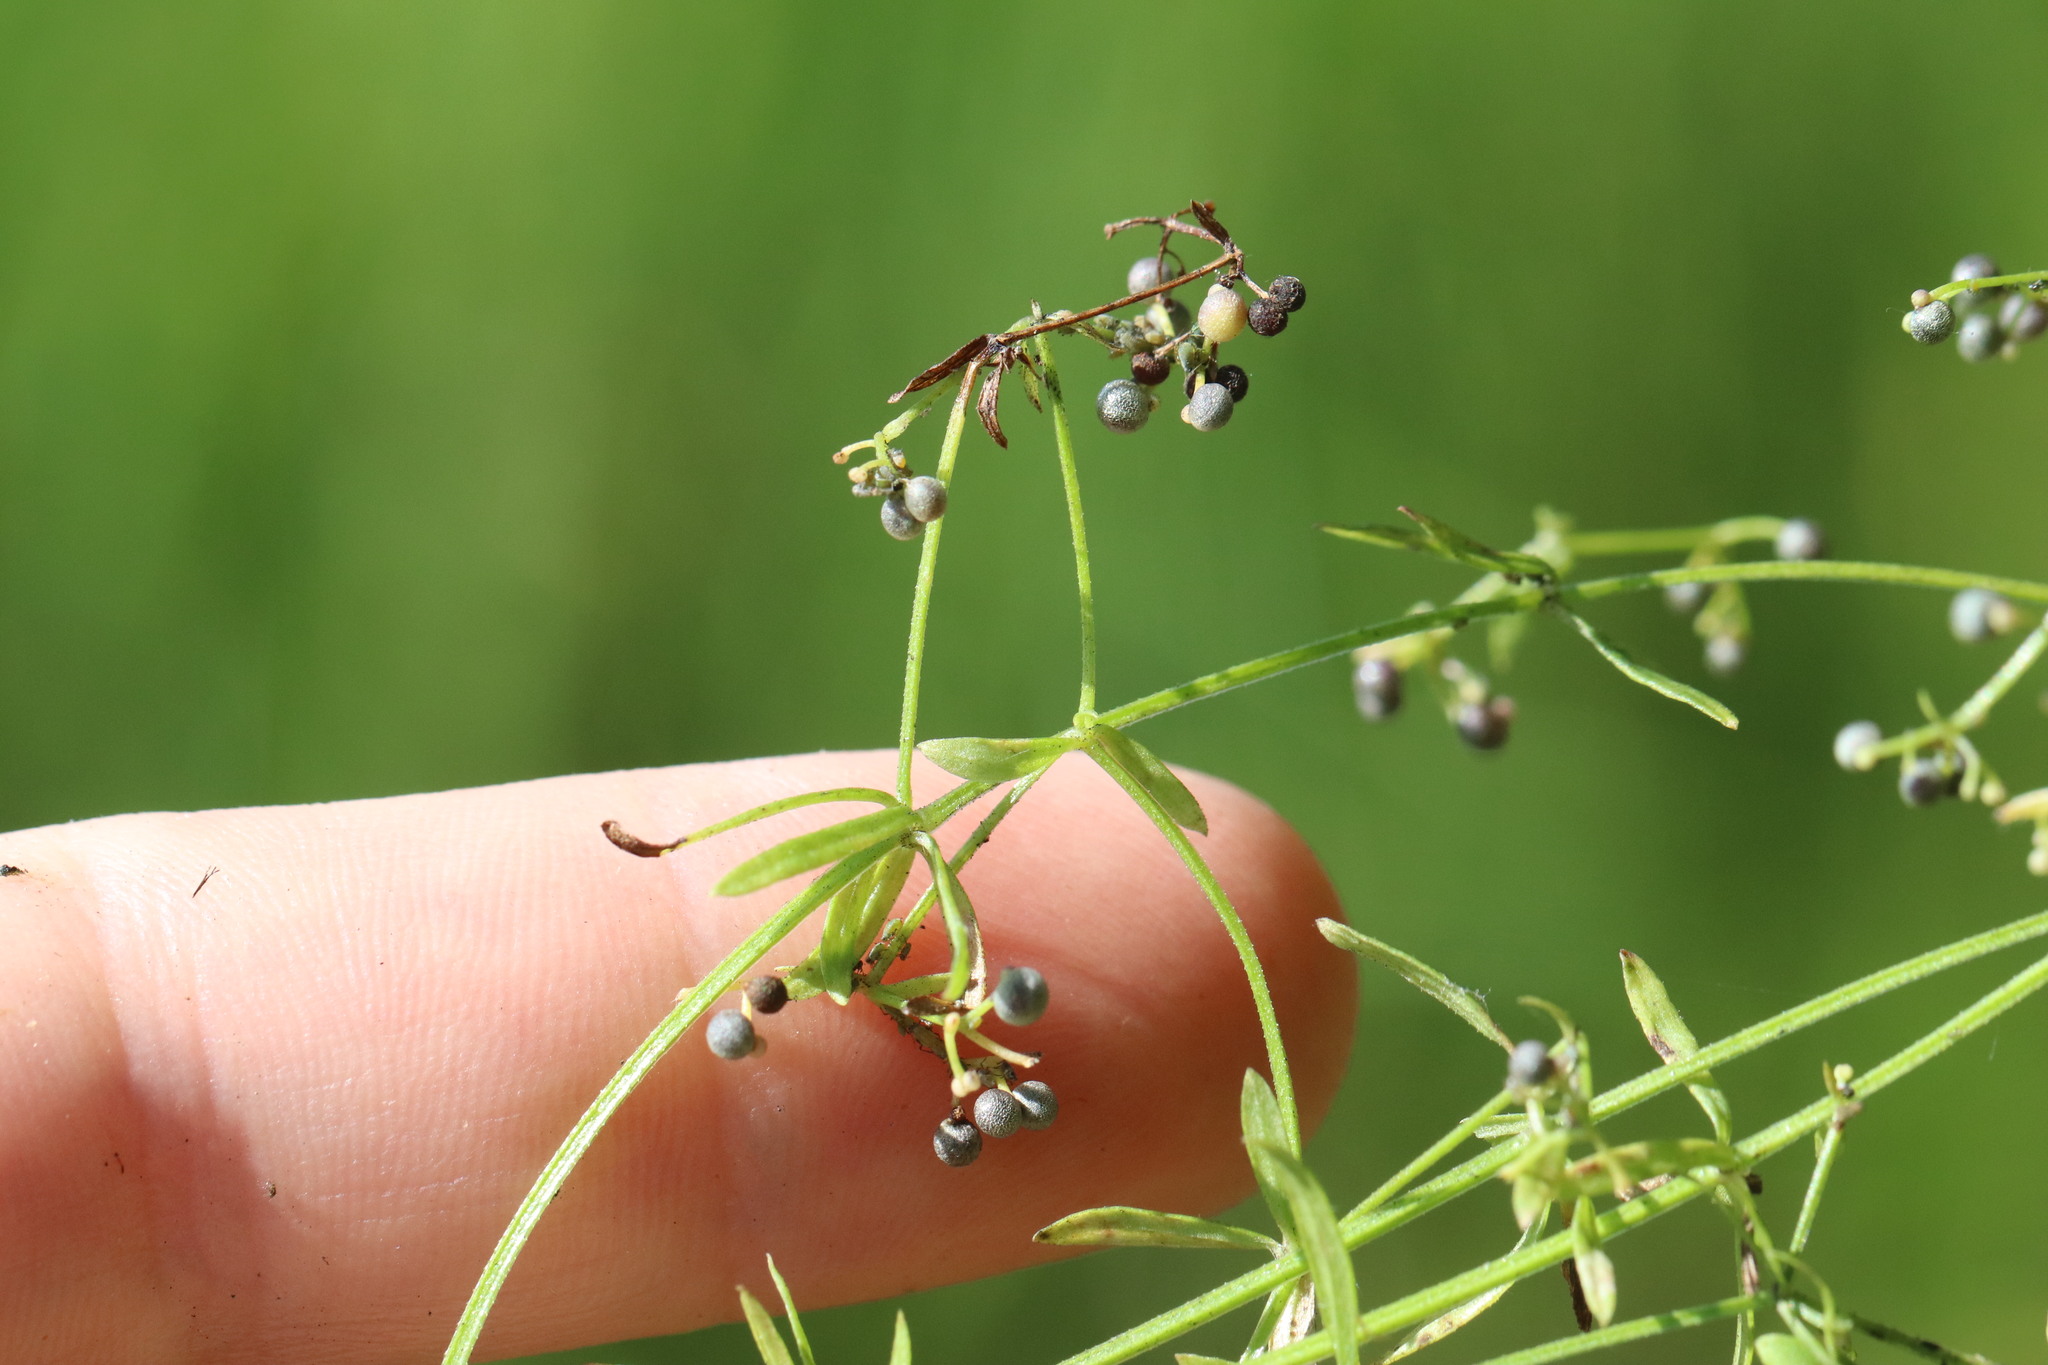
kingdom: Plantae
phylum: Tracheophyta
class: Magnoliopsida
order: Gentianales
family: Rubiaceae
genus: Galium
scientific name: Galium palustre
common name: Common marsh-bedstraw
